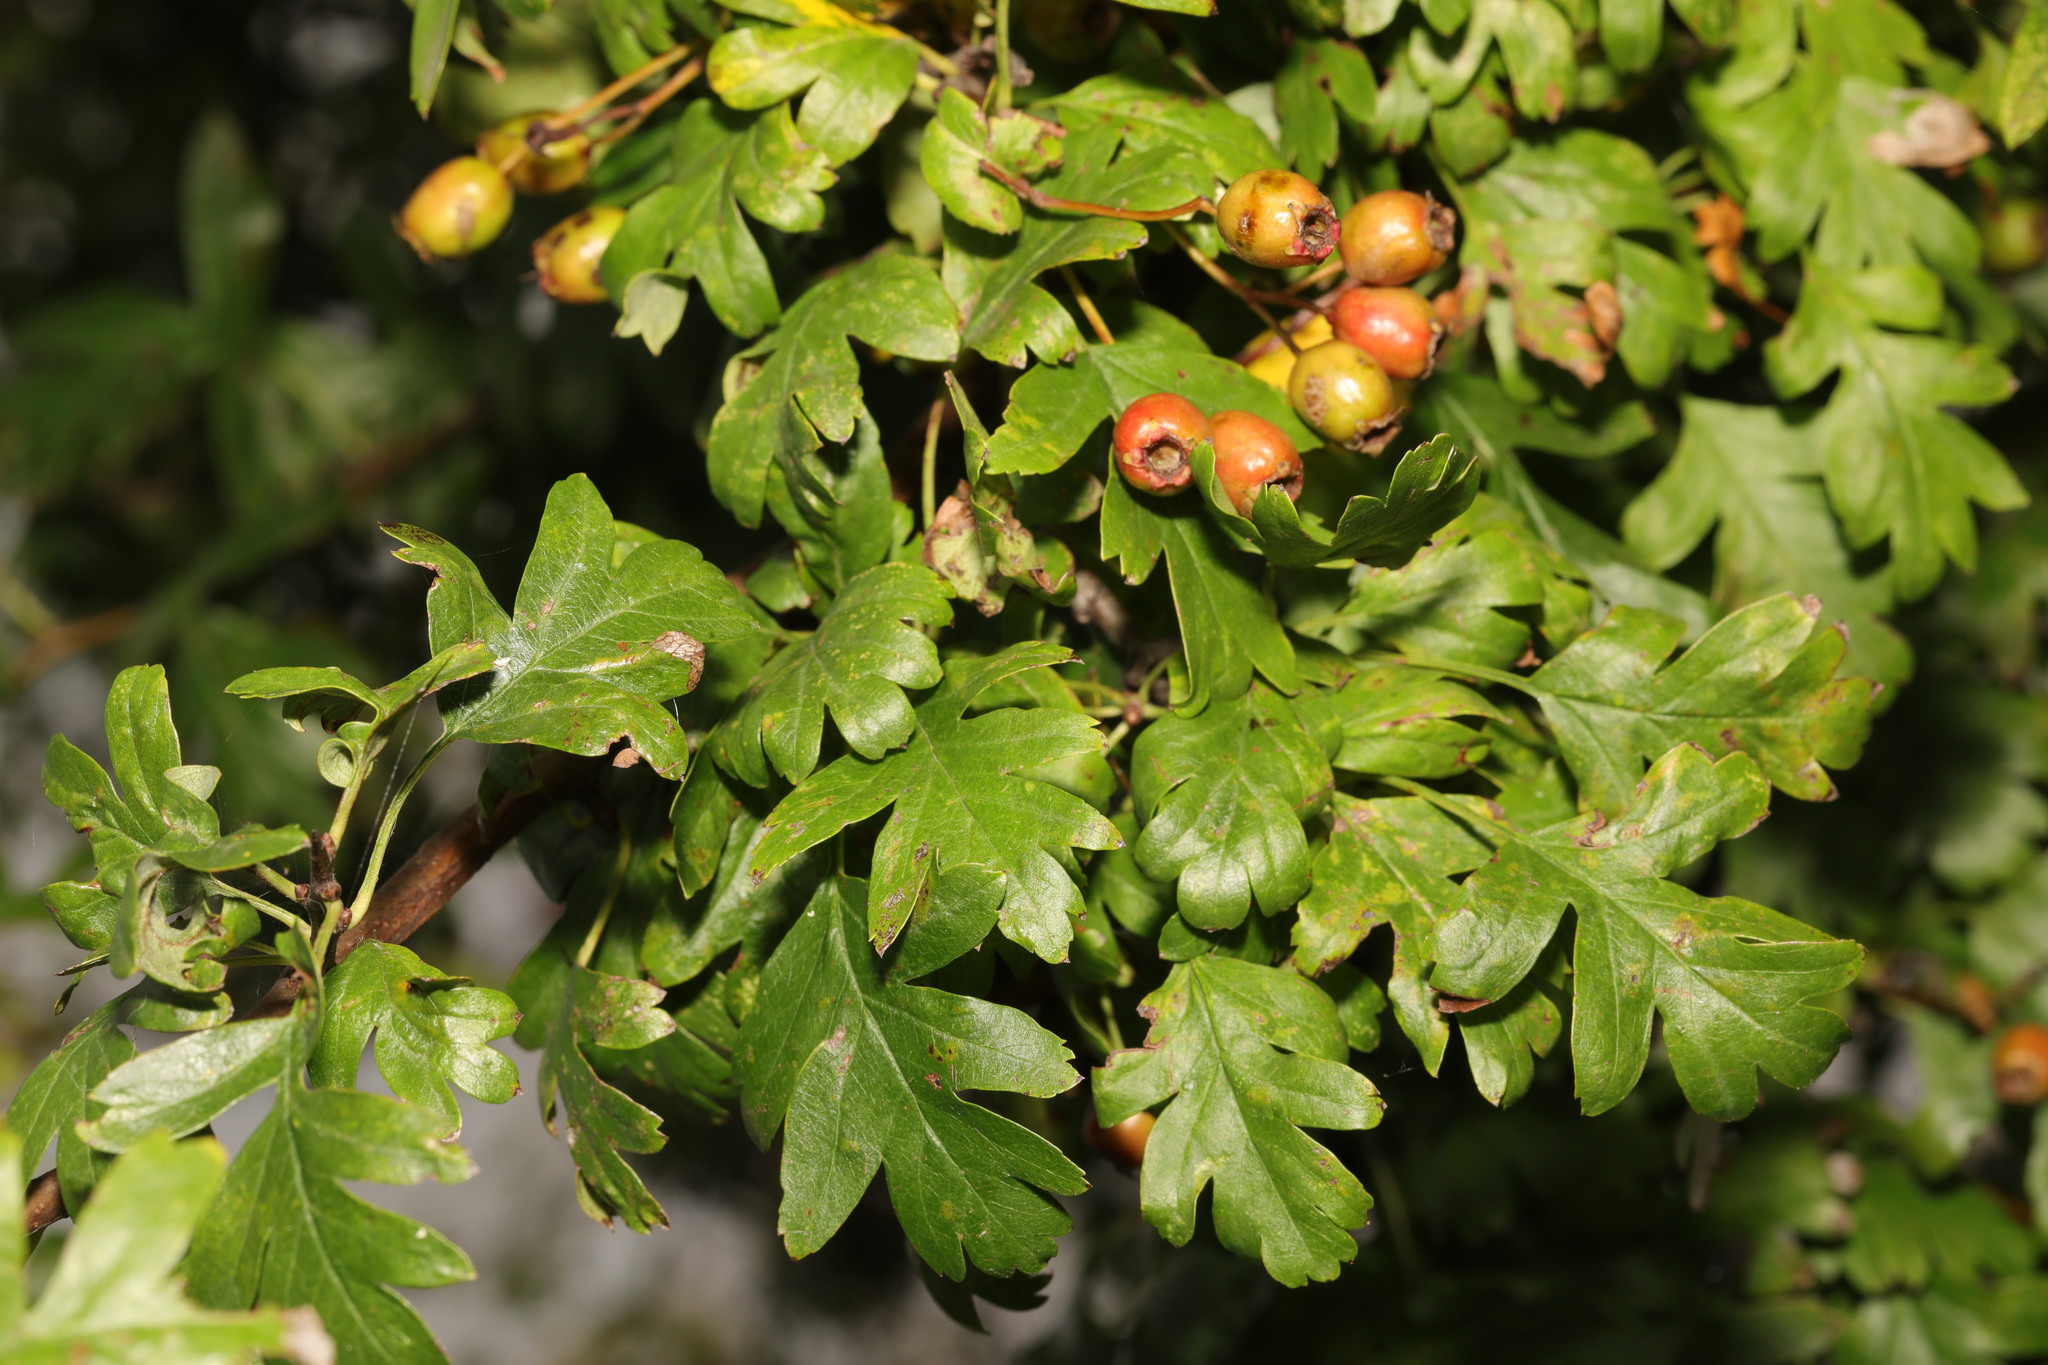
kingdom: Plantae
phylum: Tracheophyta
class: Magnoliopsida
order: Rosales
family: Rosaceae
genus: Crataegus
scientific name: Crataegus monogyna
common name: Hawthorn
